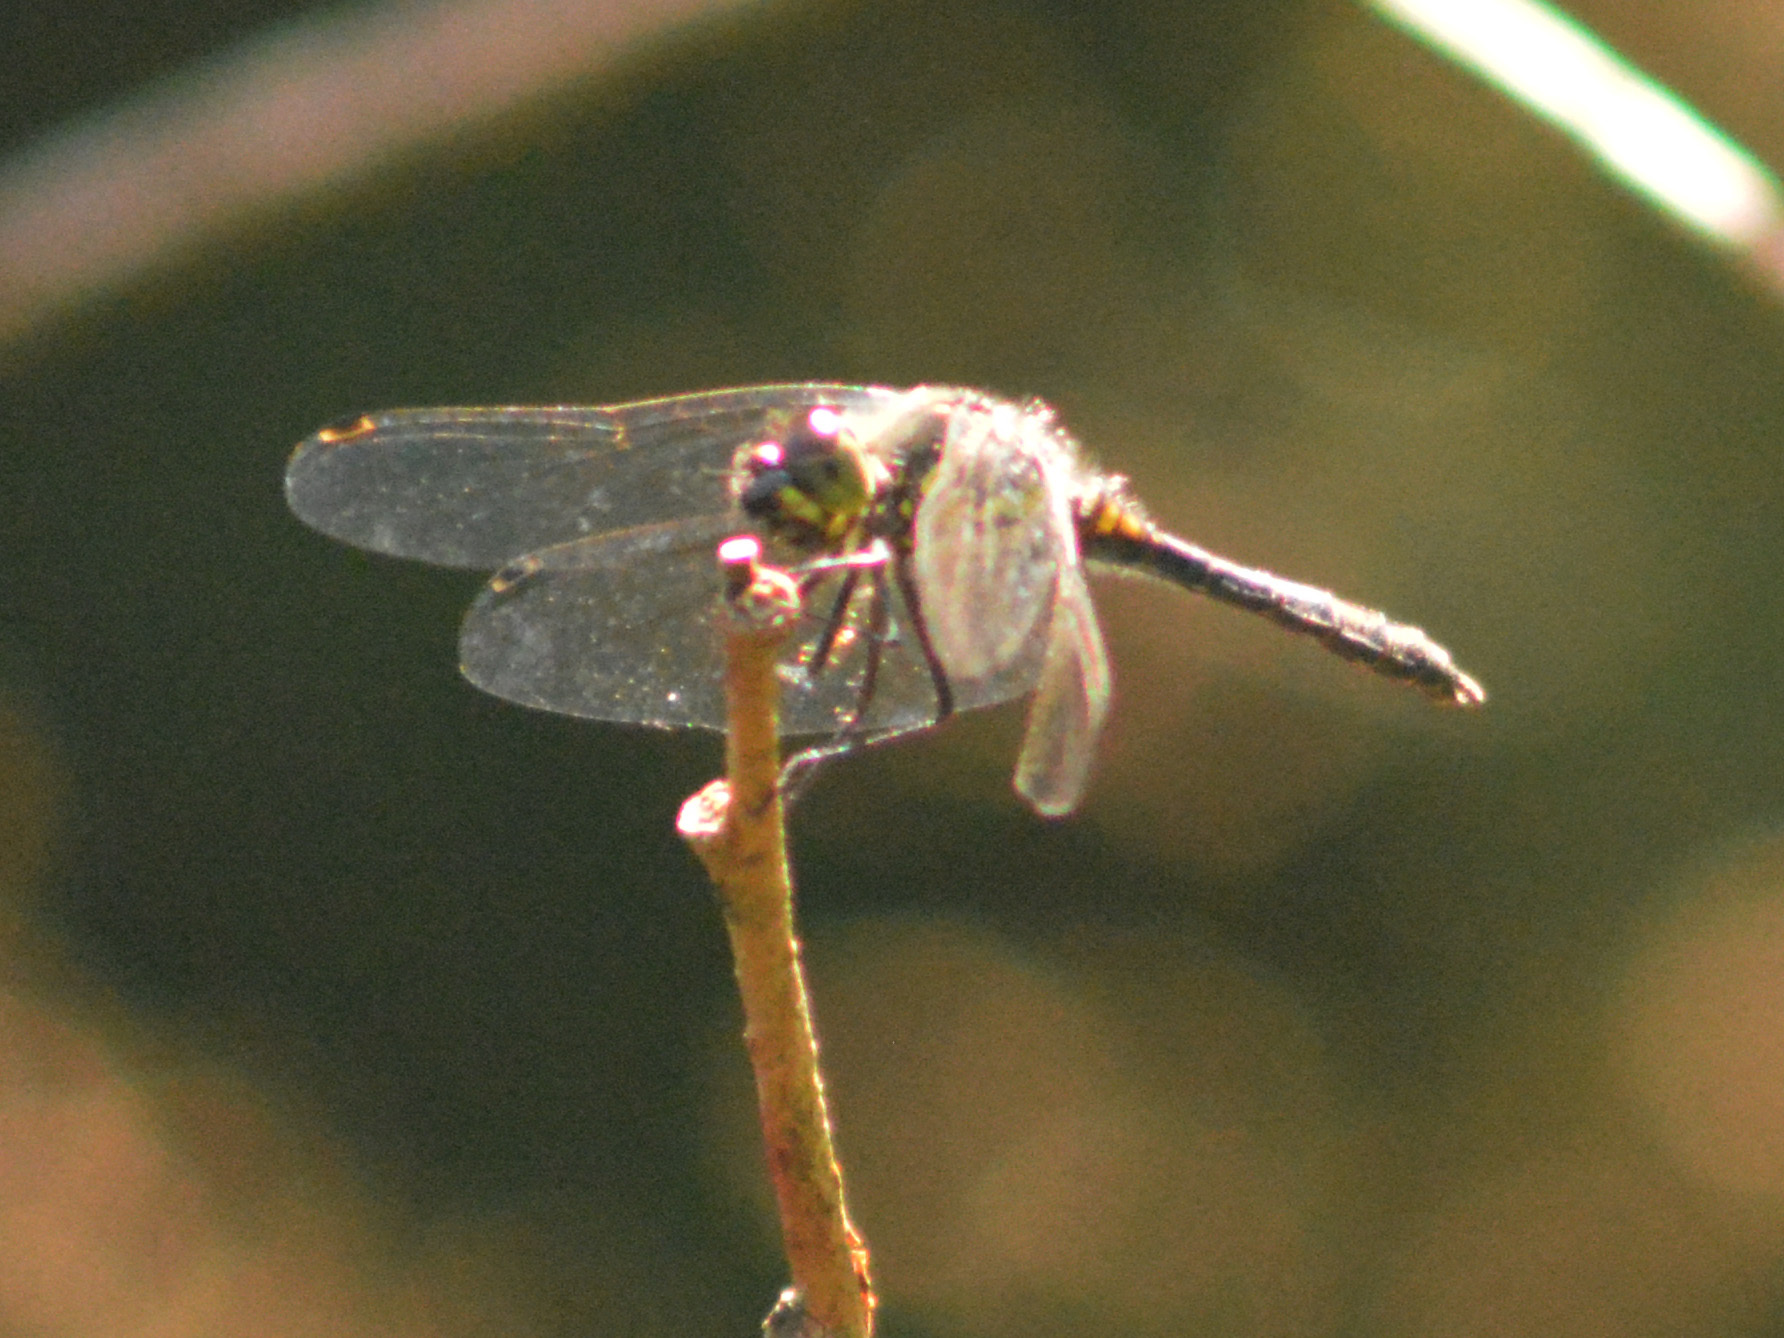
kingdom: Animalia
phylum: Arthropoda
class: Insecta
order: Odonata
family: Libellulidae
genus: Sympetrum
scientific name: Sympetrum danae
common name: Black darter
